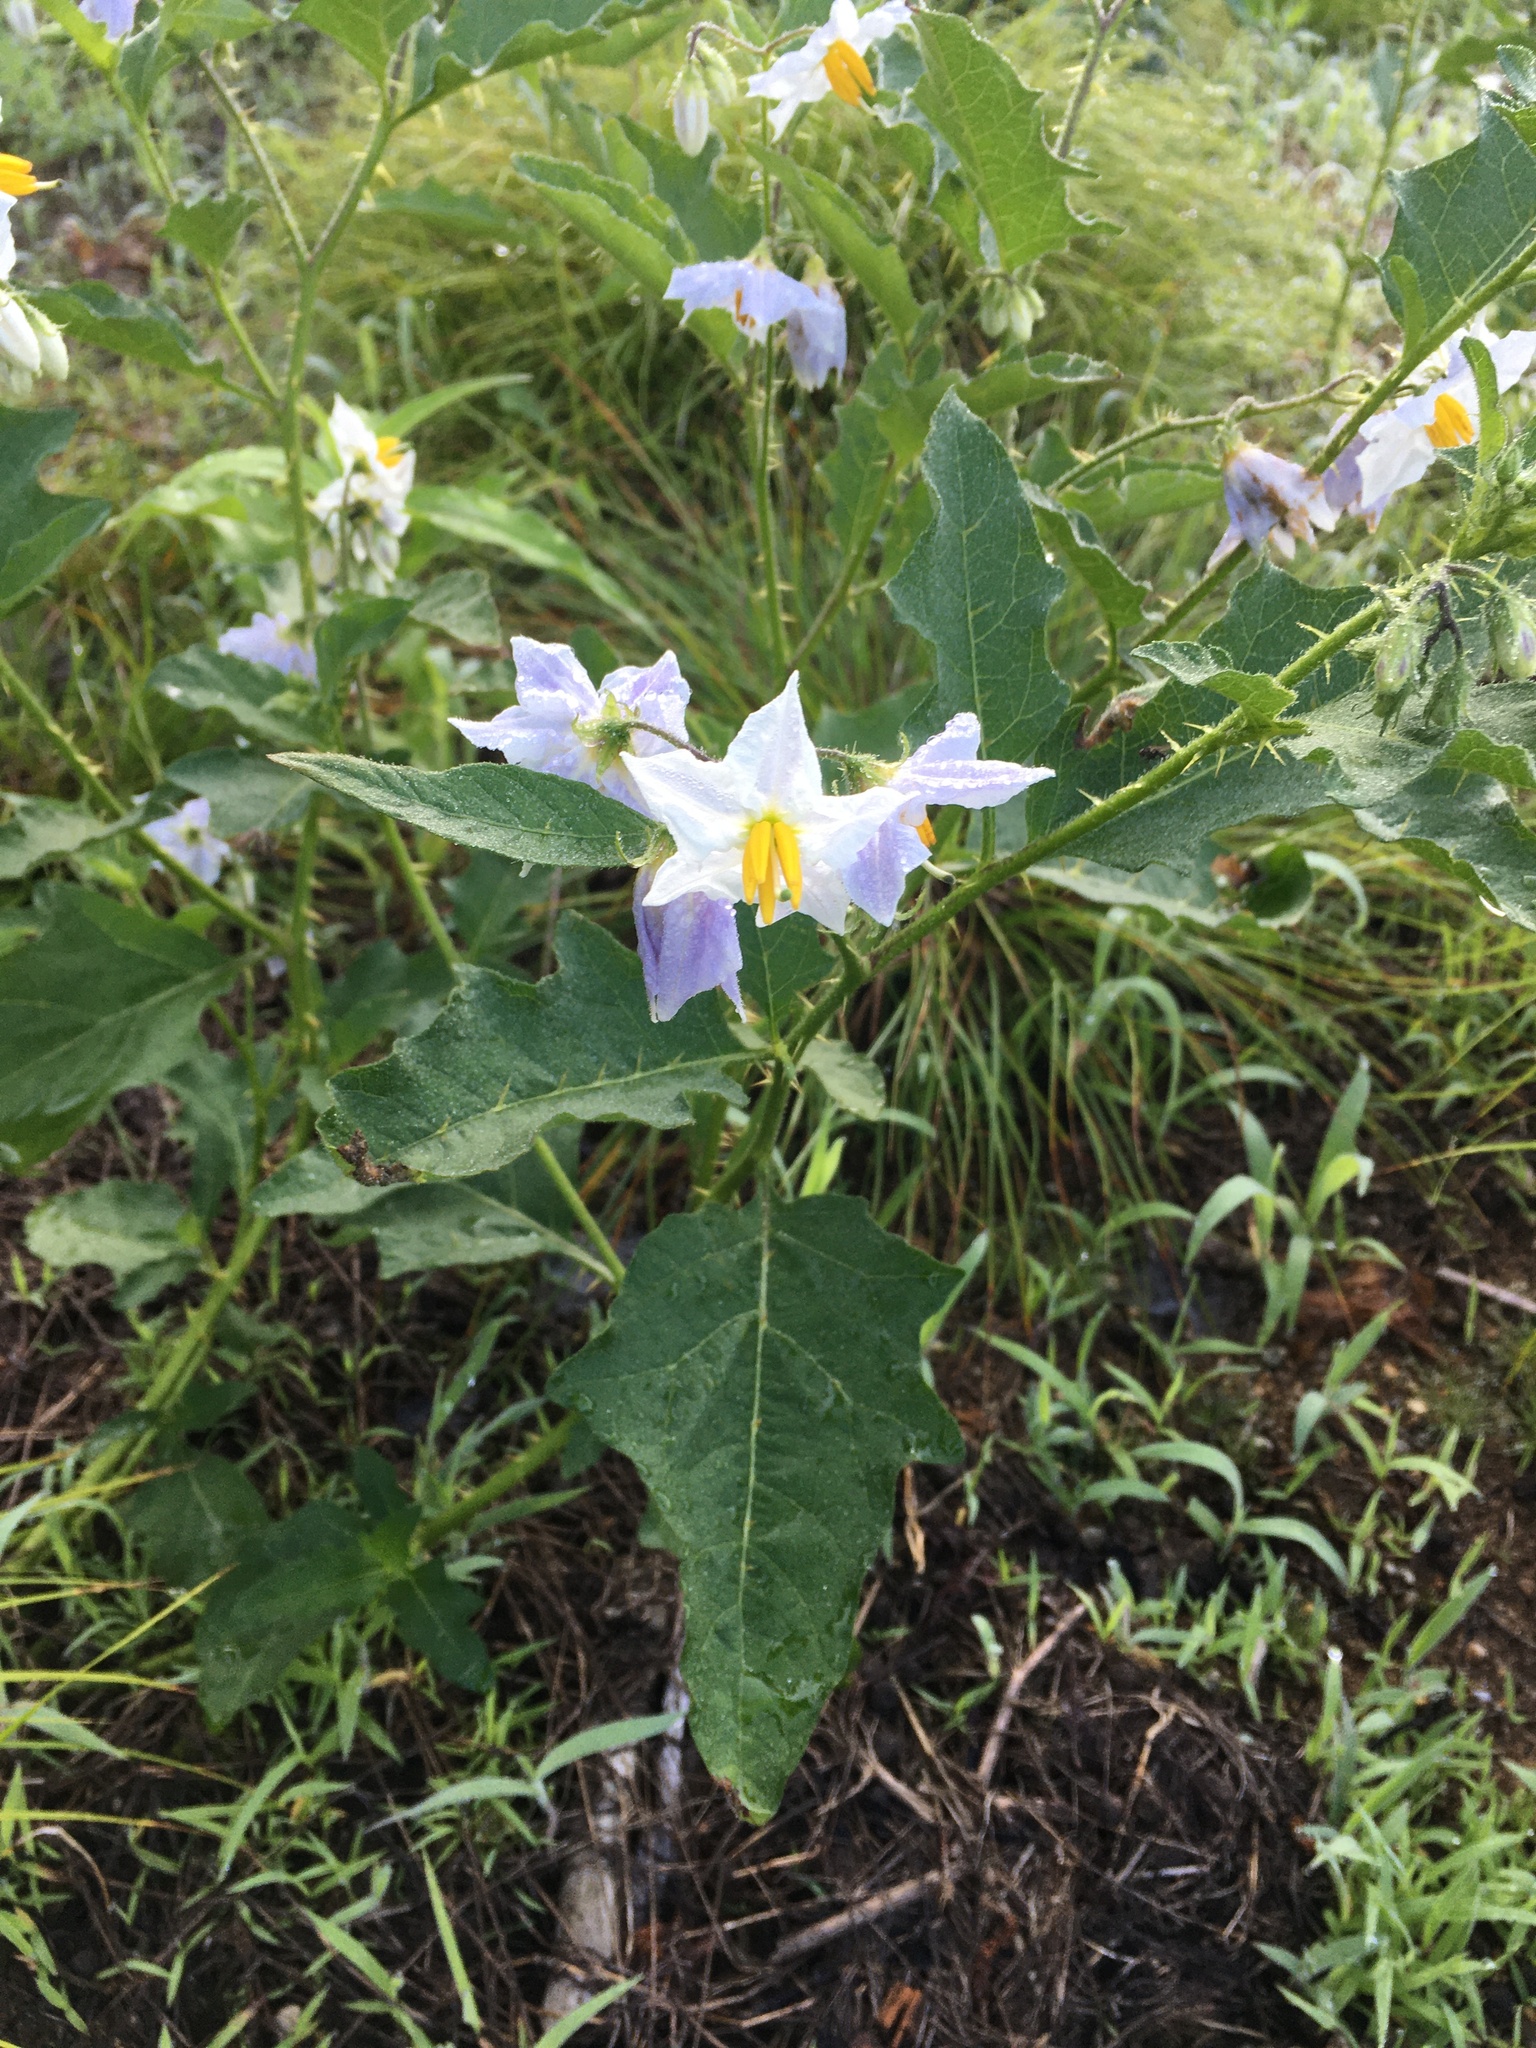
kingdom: Plantae
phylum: Tracheophyta
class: Magnoliopsida
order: Solanales
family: Solanaceae
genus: Solanum
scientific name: Solanum carolinense
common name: Horse-nettle
